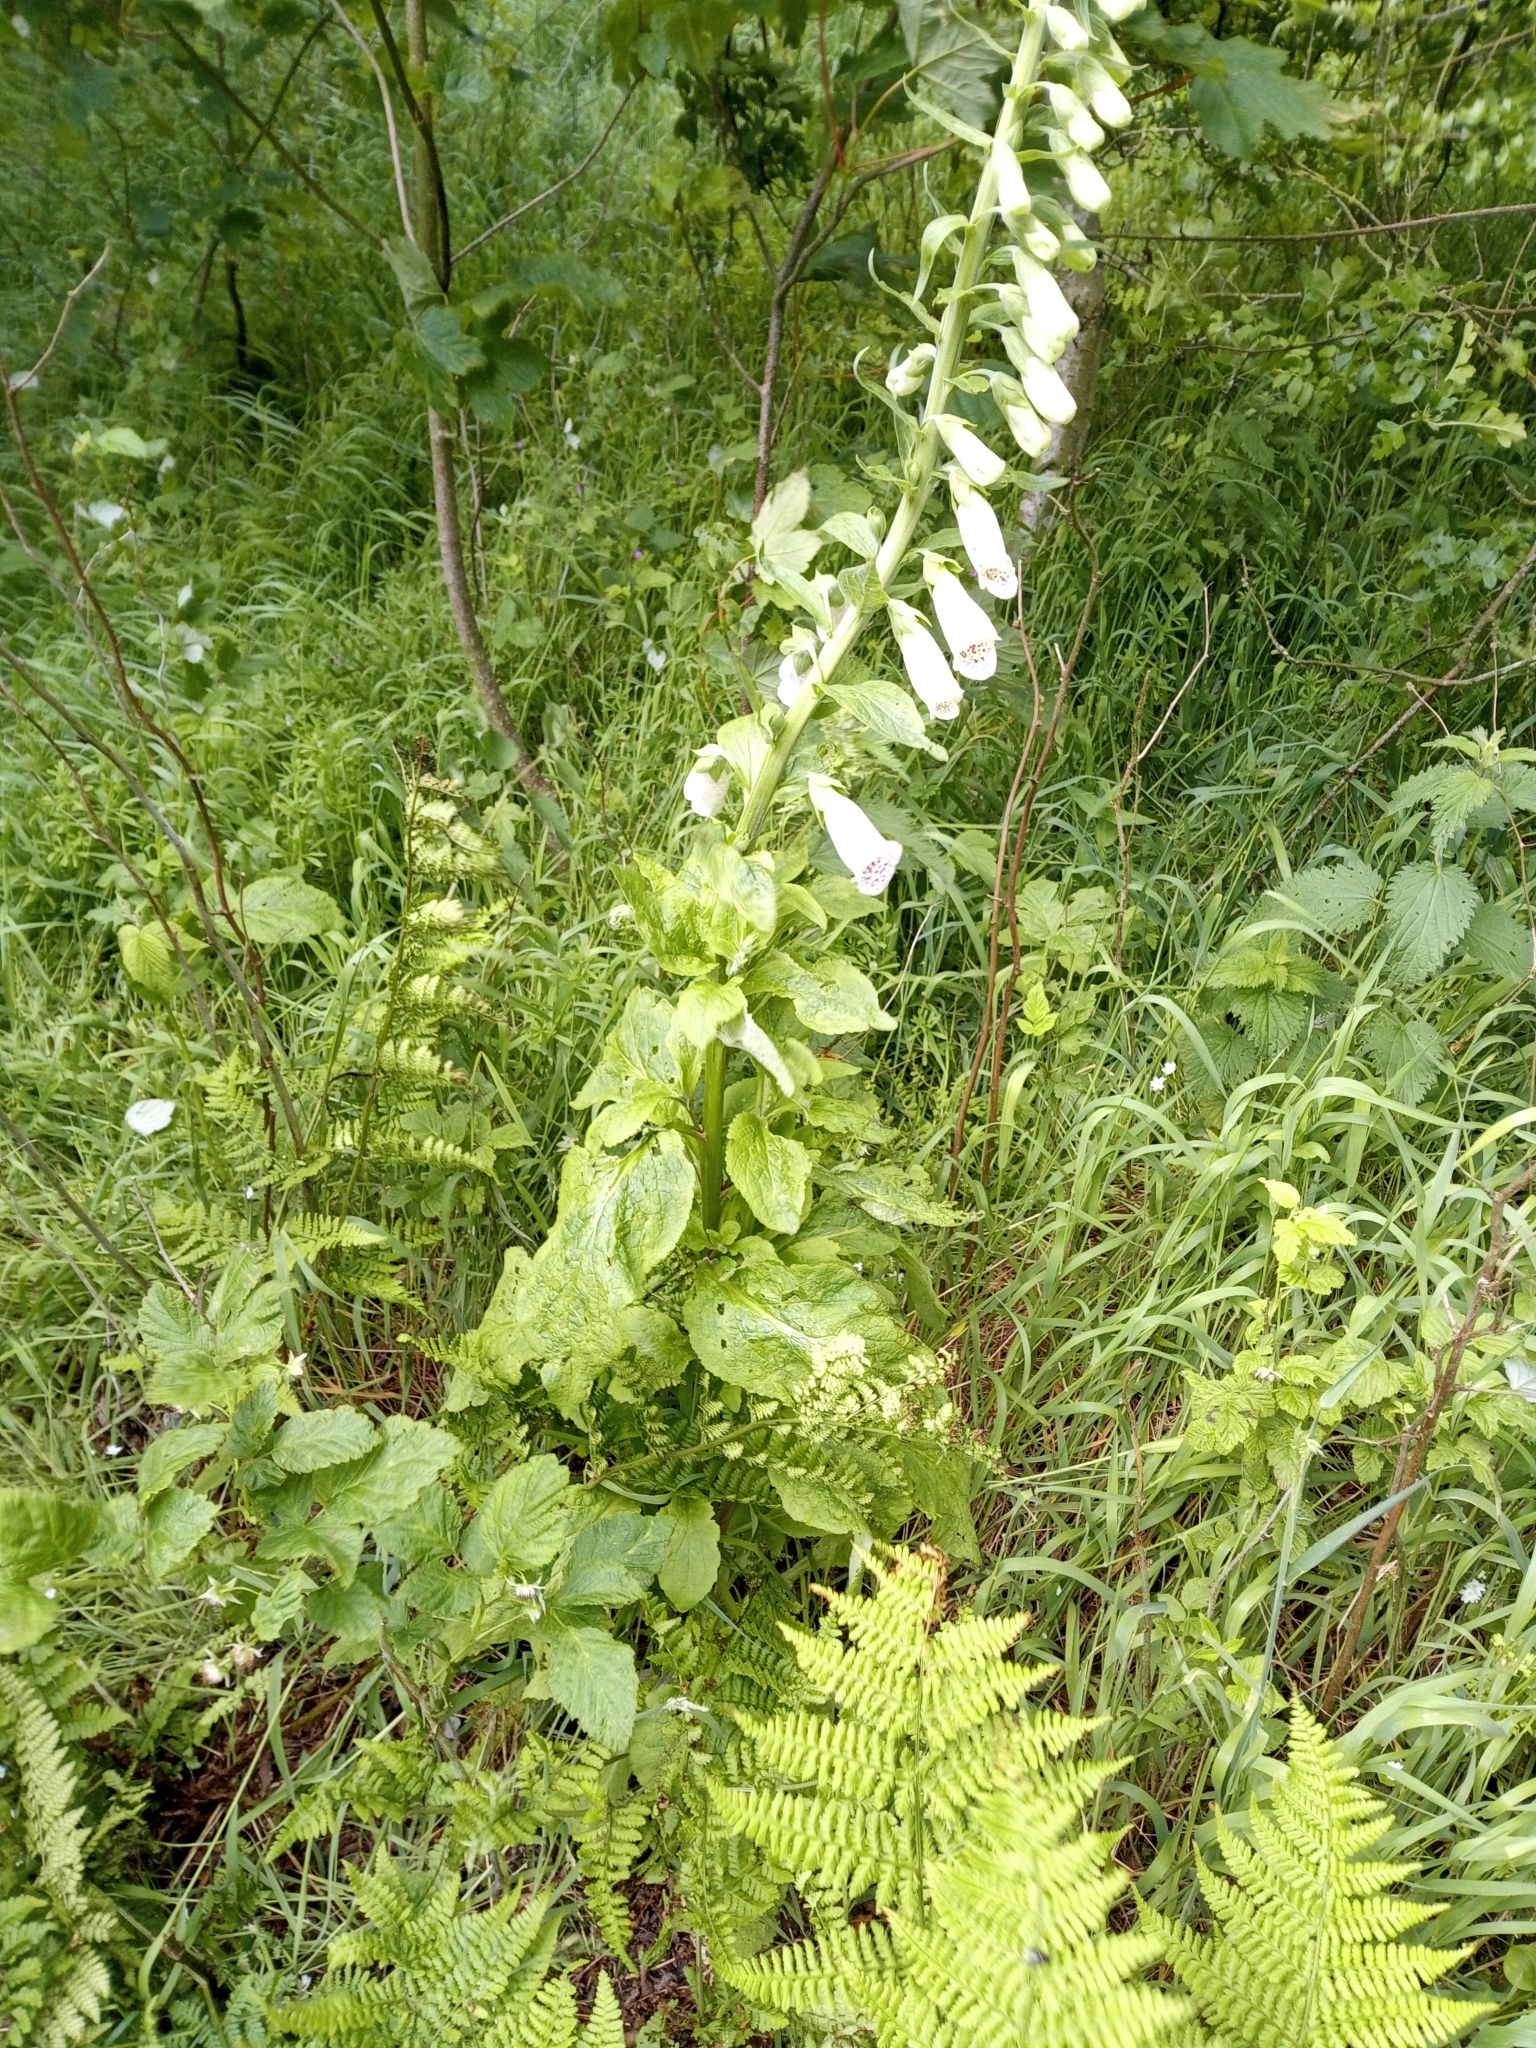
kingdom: Plantae
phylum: Tracheophyta
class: Magnoliopsida
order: Lamiales
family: Plantaginaceae
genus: Digitalis
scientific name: Digitalis purpurea
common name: Foxglove
